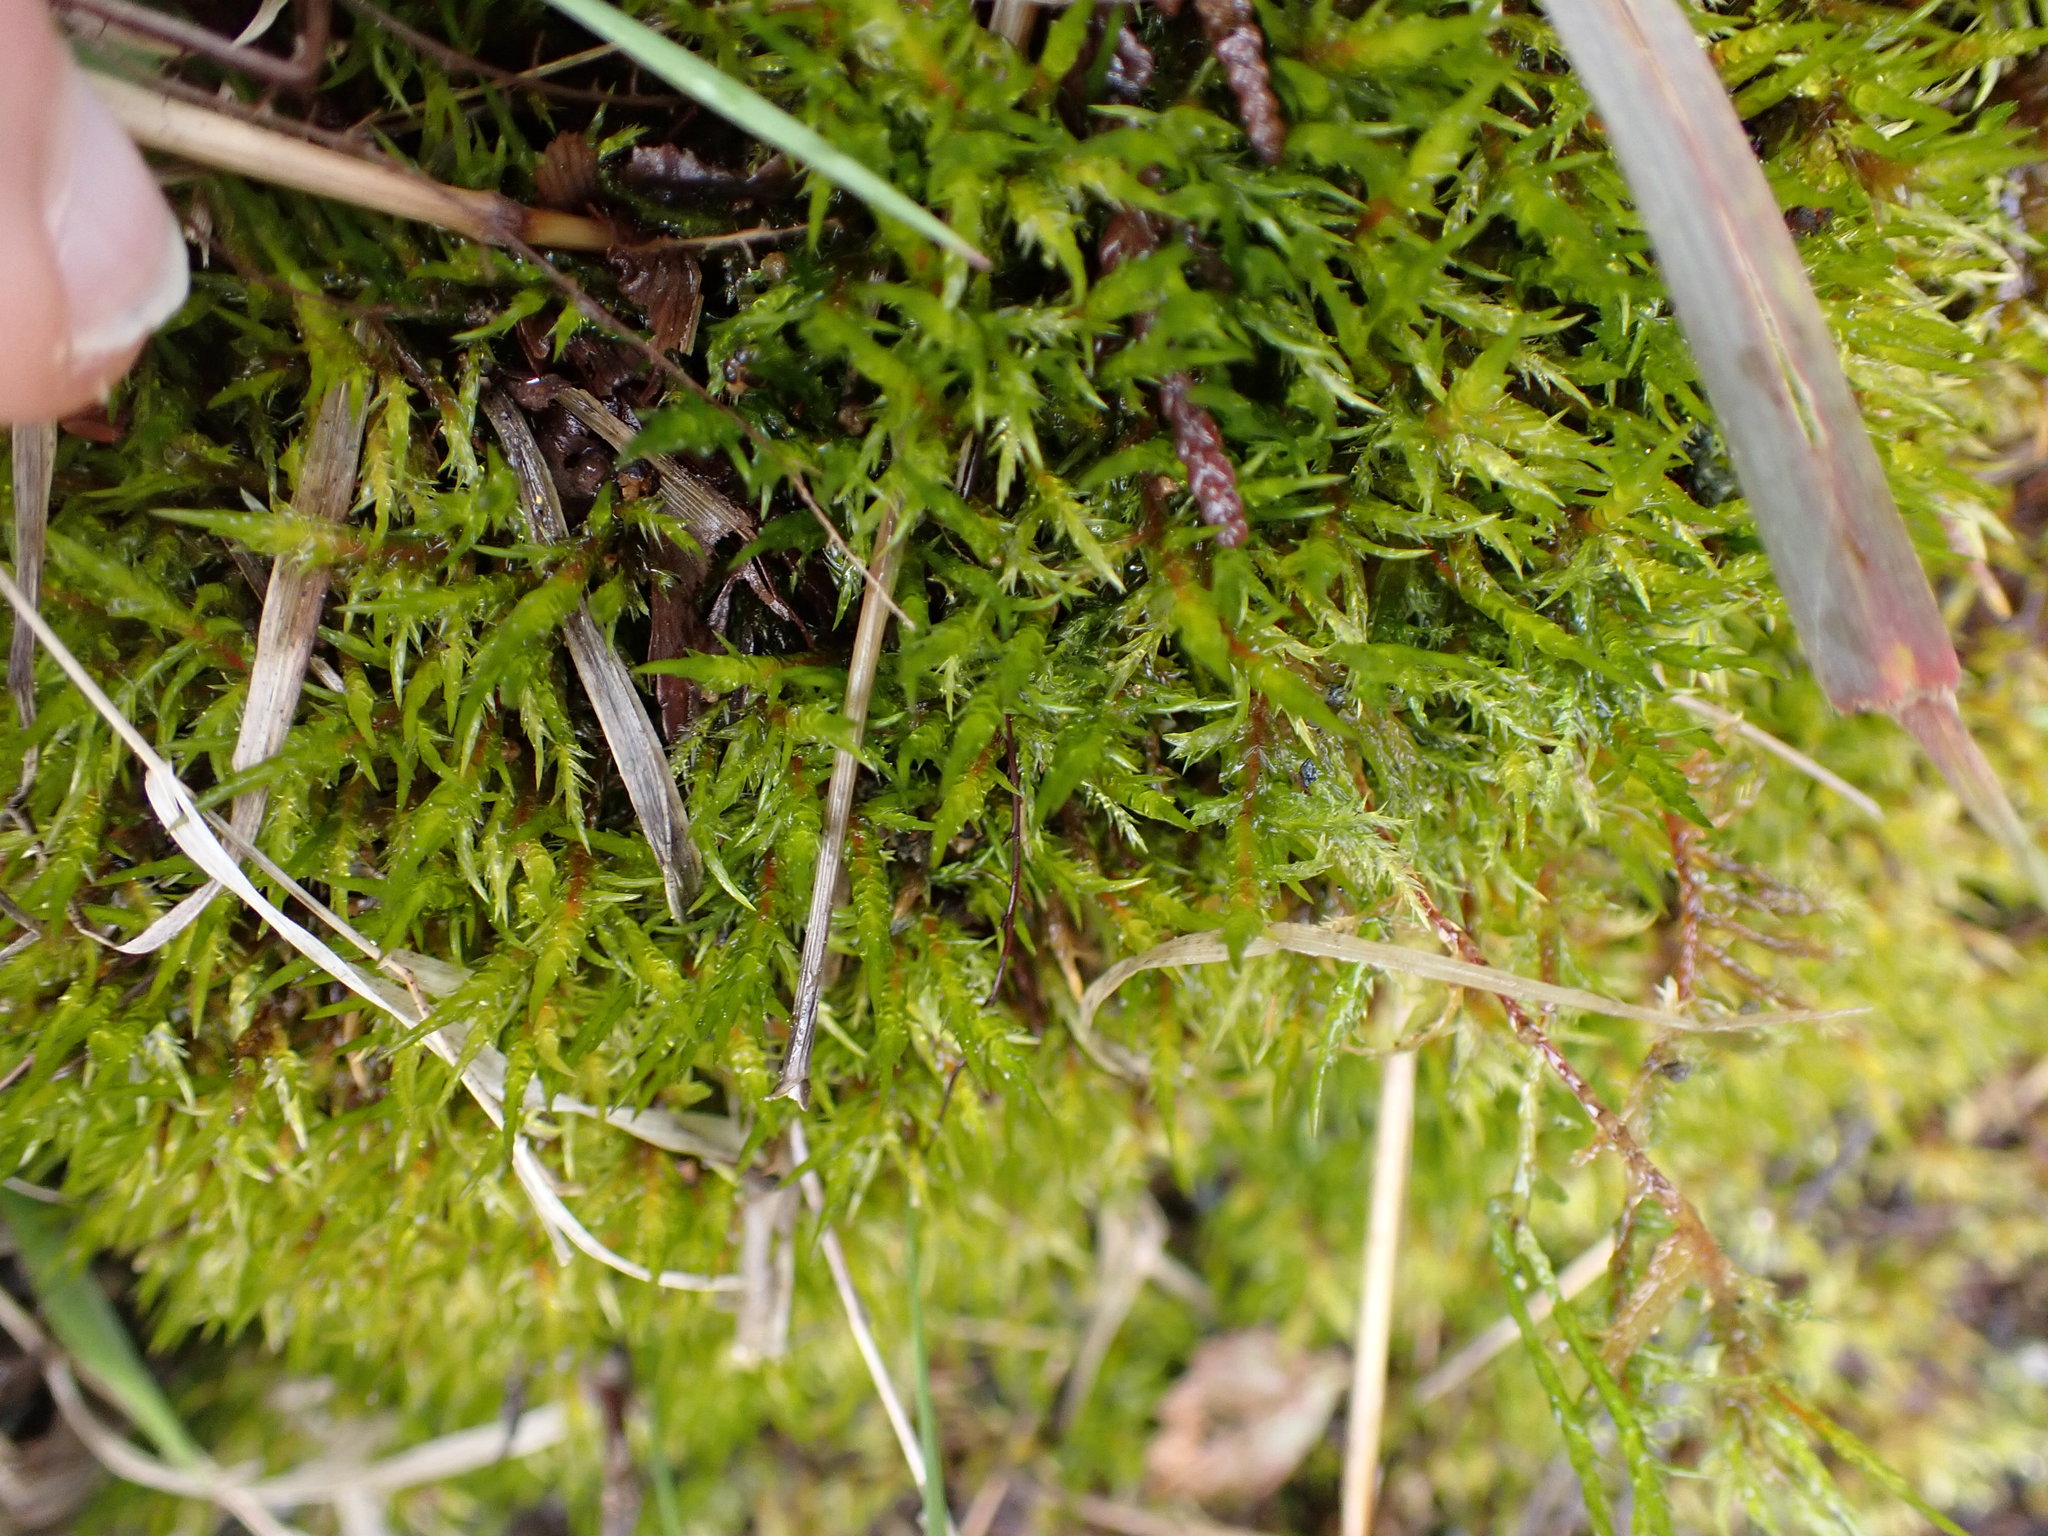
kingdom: Plantae
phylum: Bryophyta
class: Bryopsida
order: Hypnales
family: Pylaisiaceae
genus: Calliergonella
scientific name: Calliergonella cuspidata
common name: Common large wetland moss
